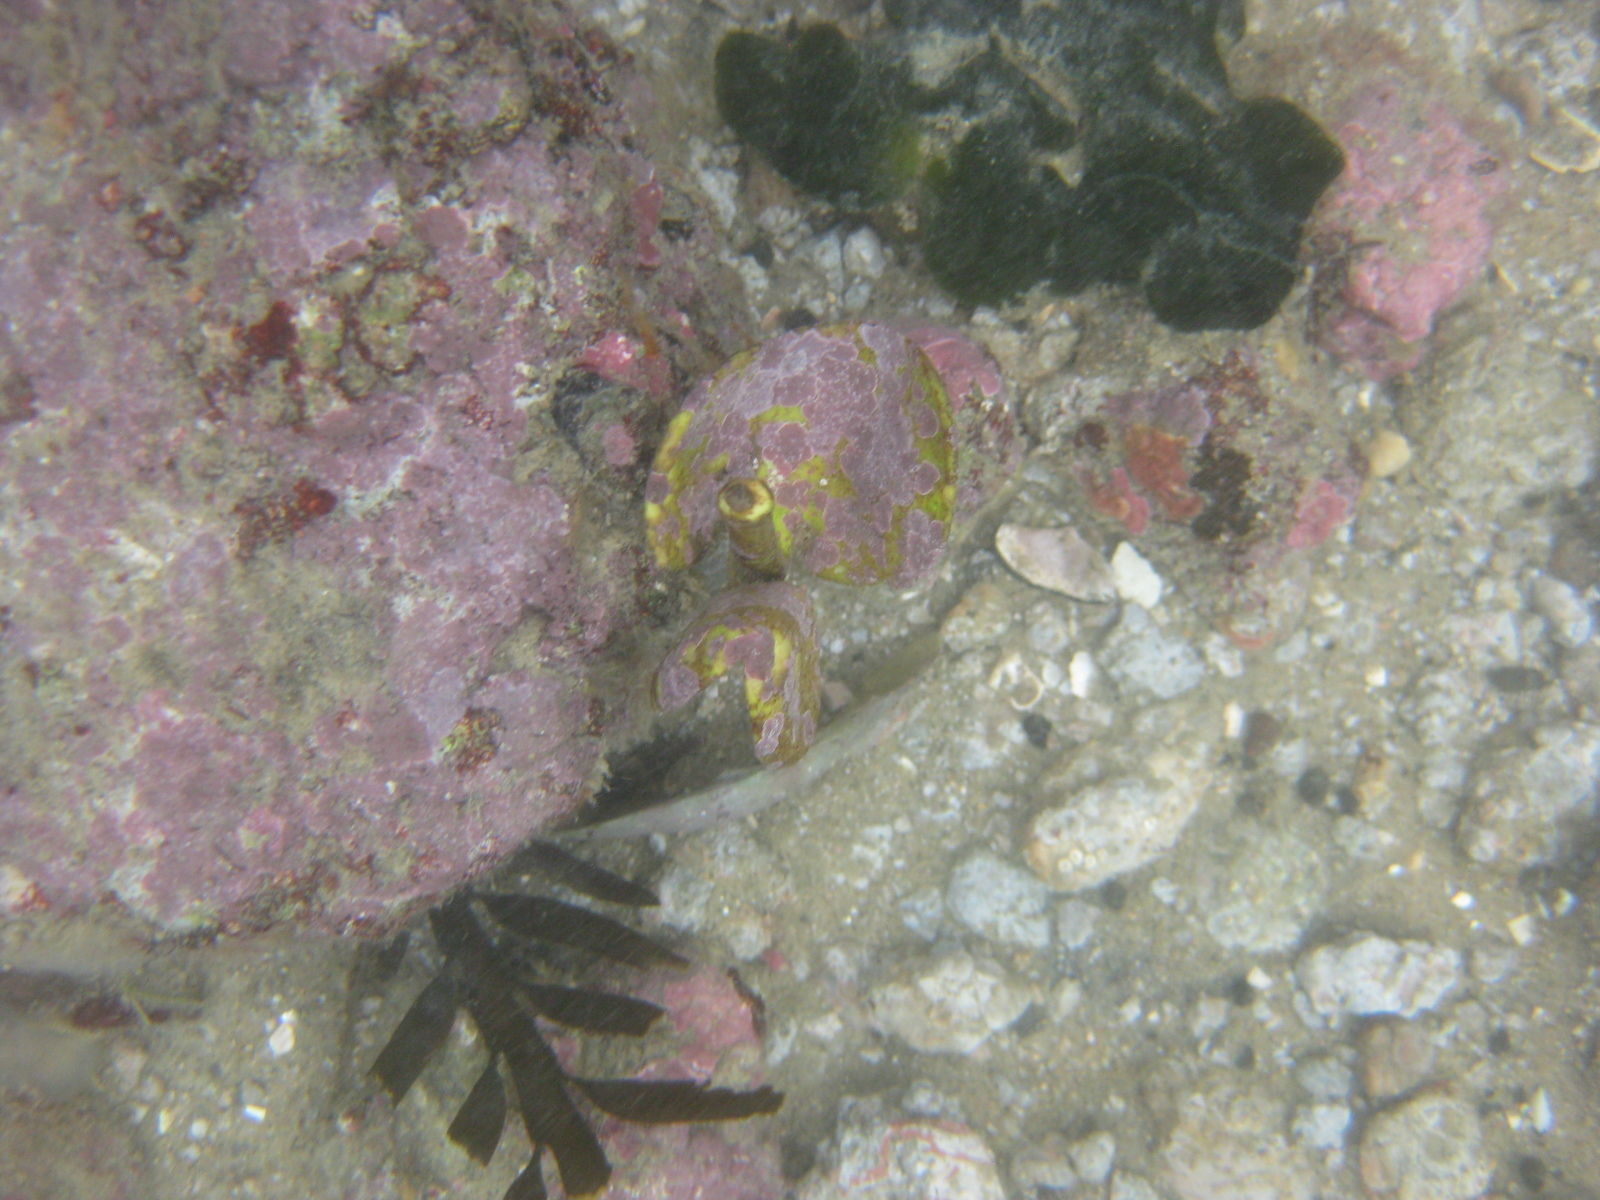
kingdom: Plantae
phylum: Tracheophyta
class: Magnoliopsida
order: Lamiales
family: Acanthaceae
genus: Avicennia
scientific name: Avicennia marina
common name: Gray mangrove
